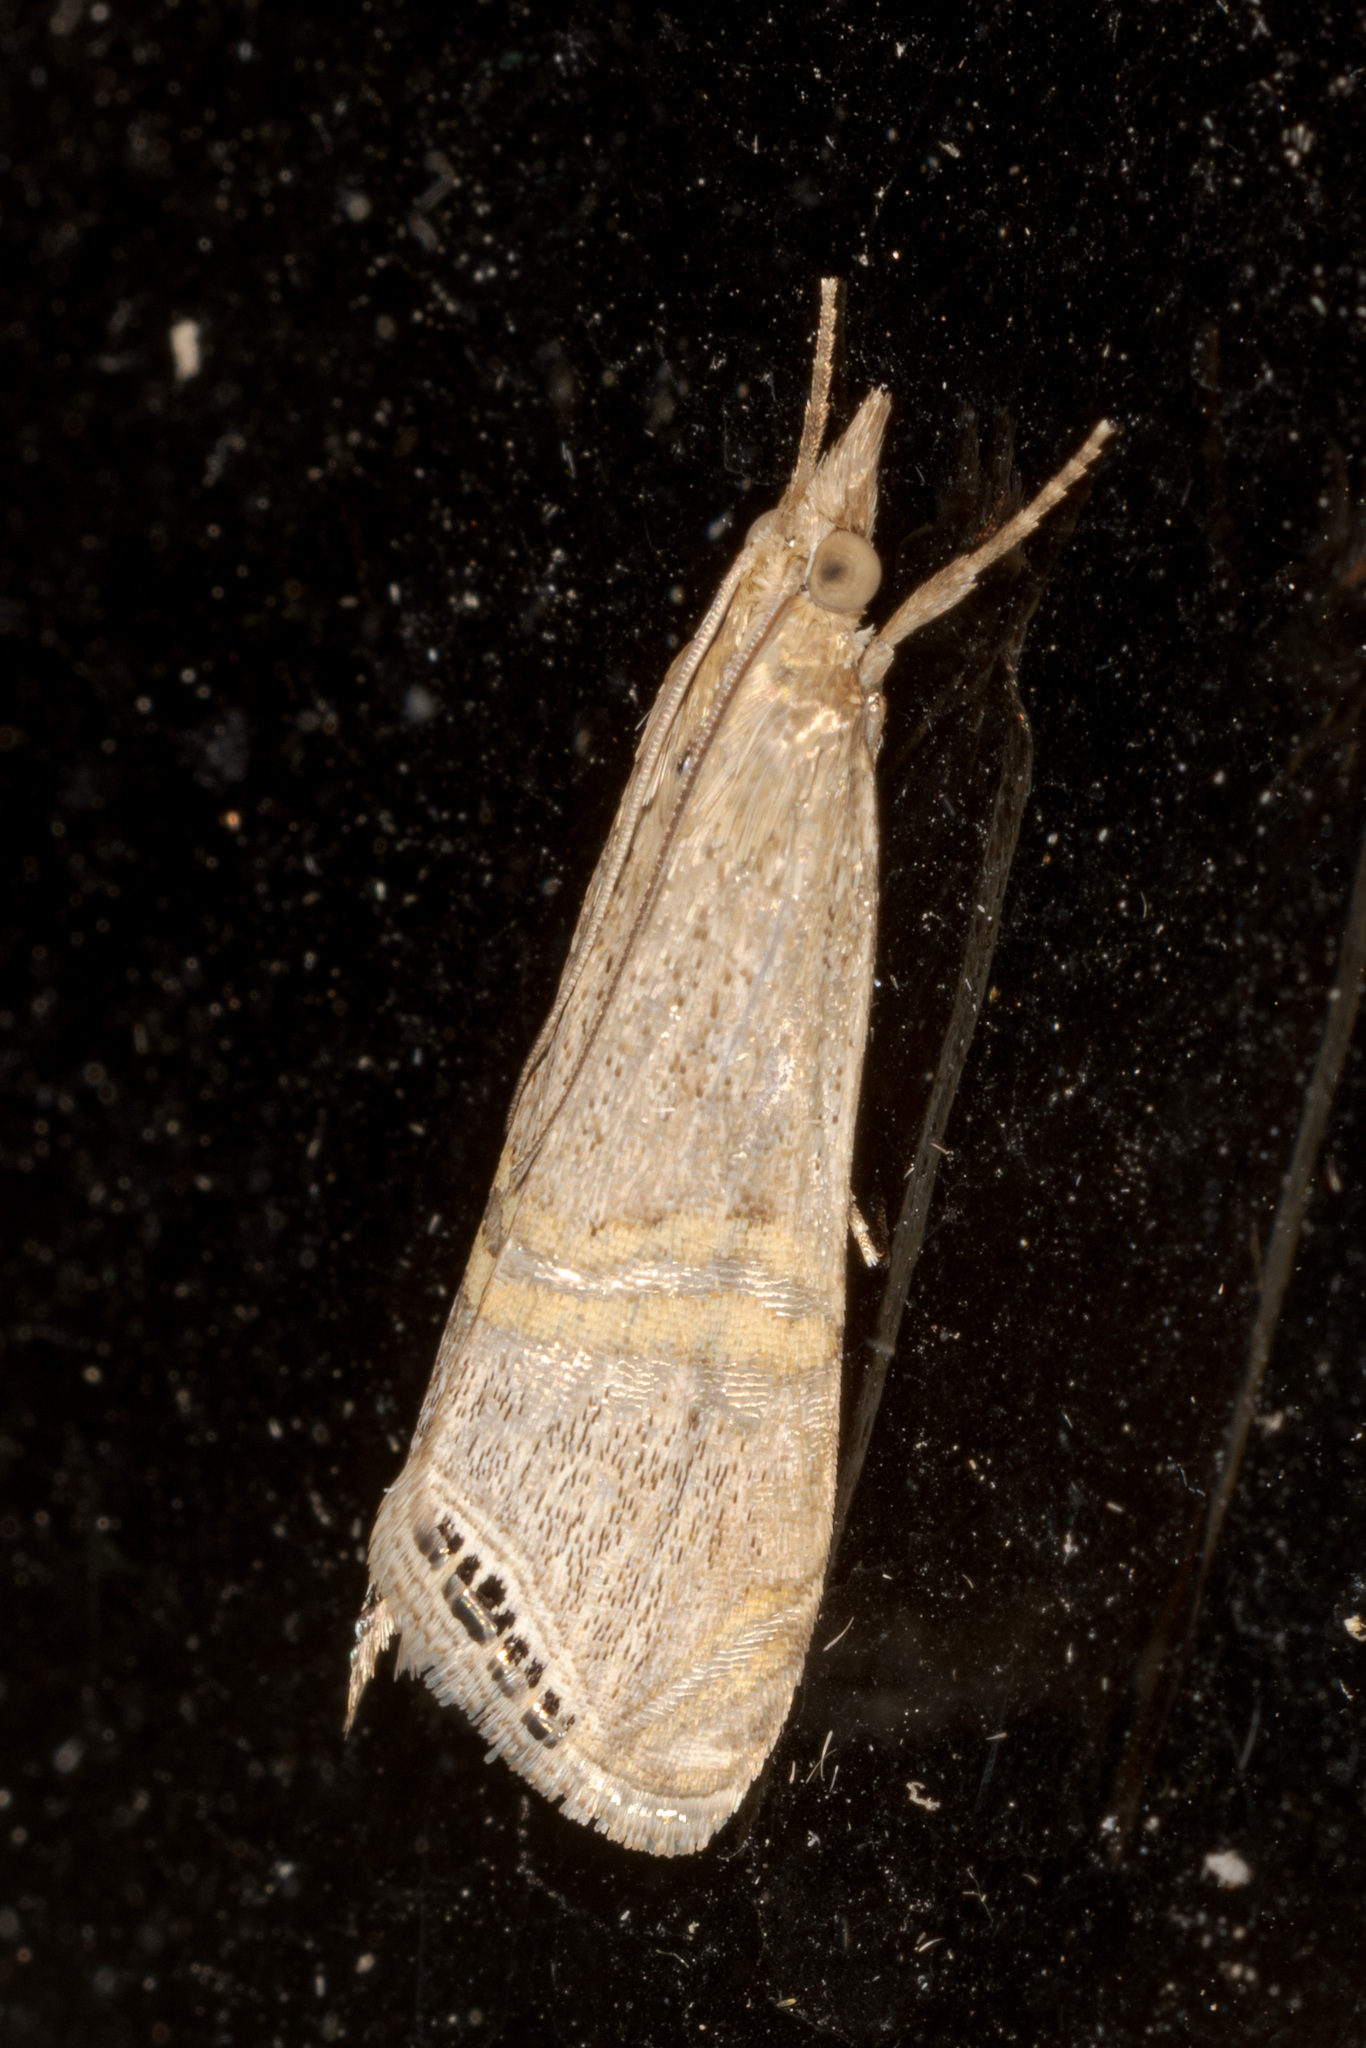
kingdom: Animalia
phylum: Arthropoda
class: Insecta
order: Lepidoptera
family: Crambidae
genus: Euchromius
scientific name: Euchromius ocellea
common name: Necklace veneer moth
